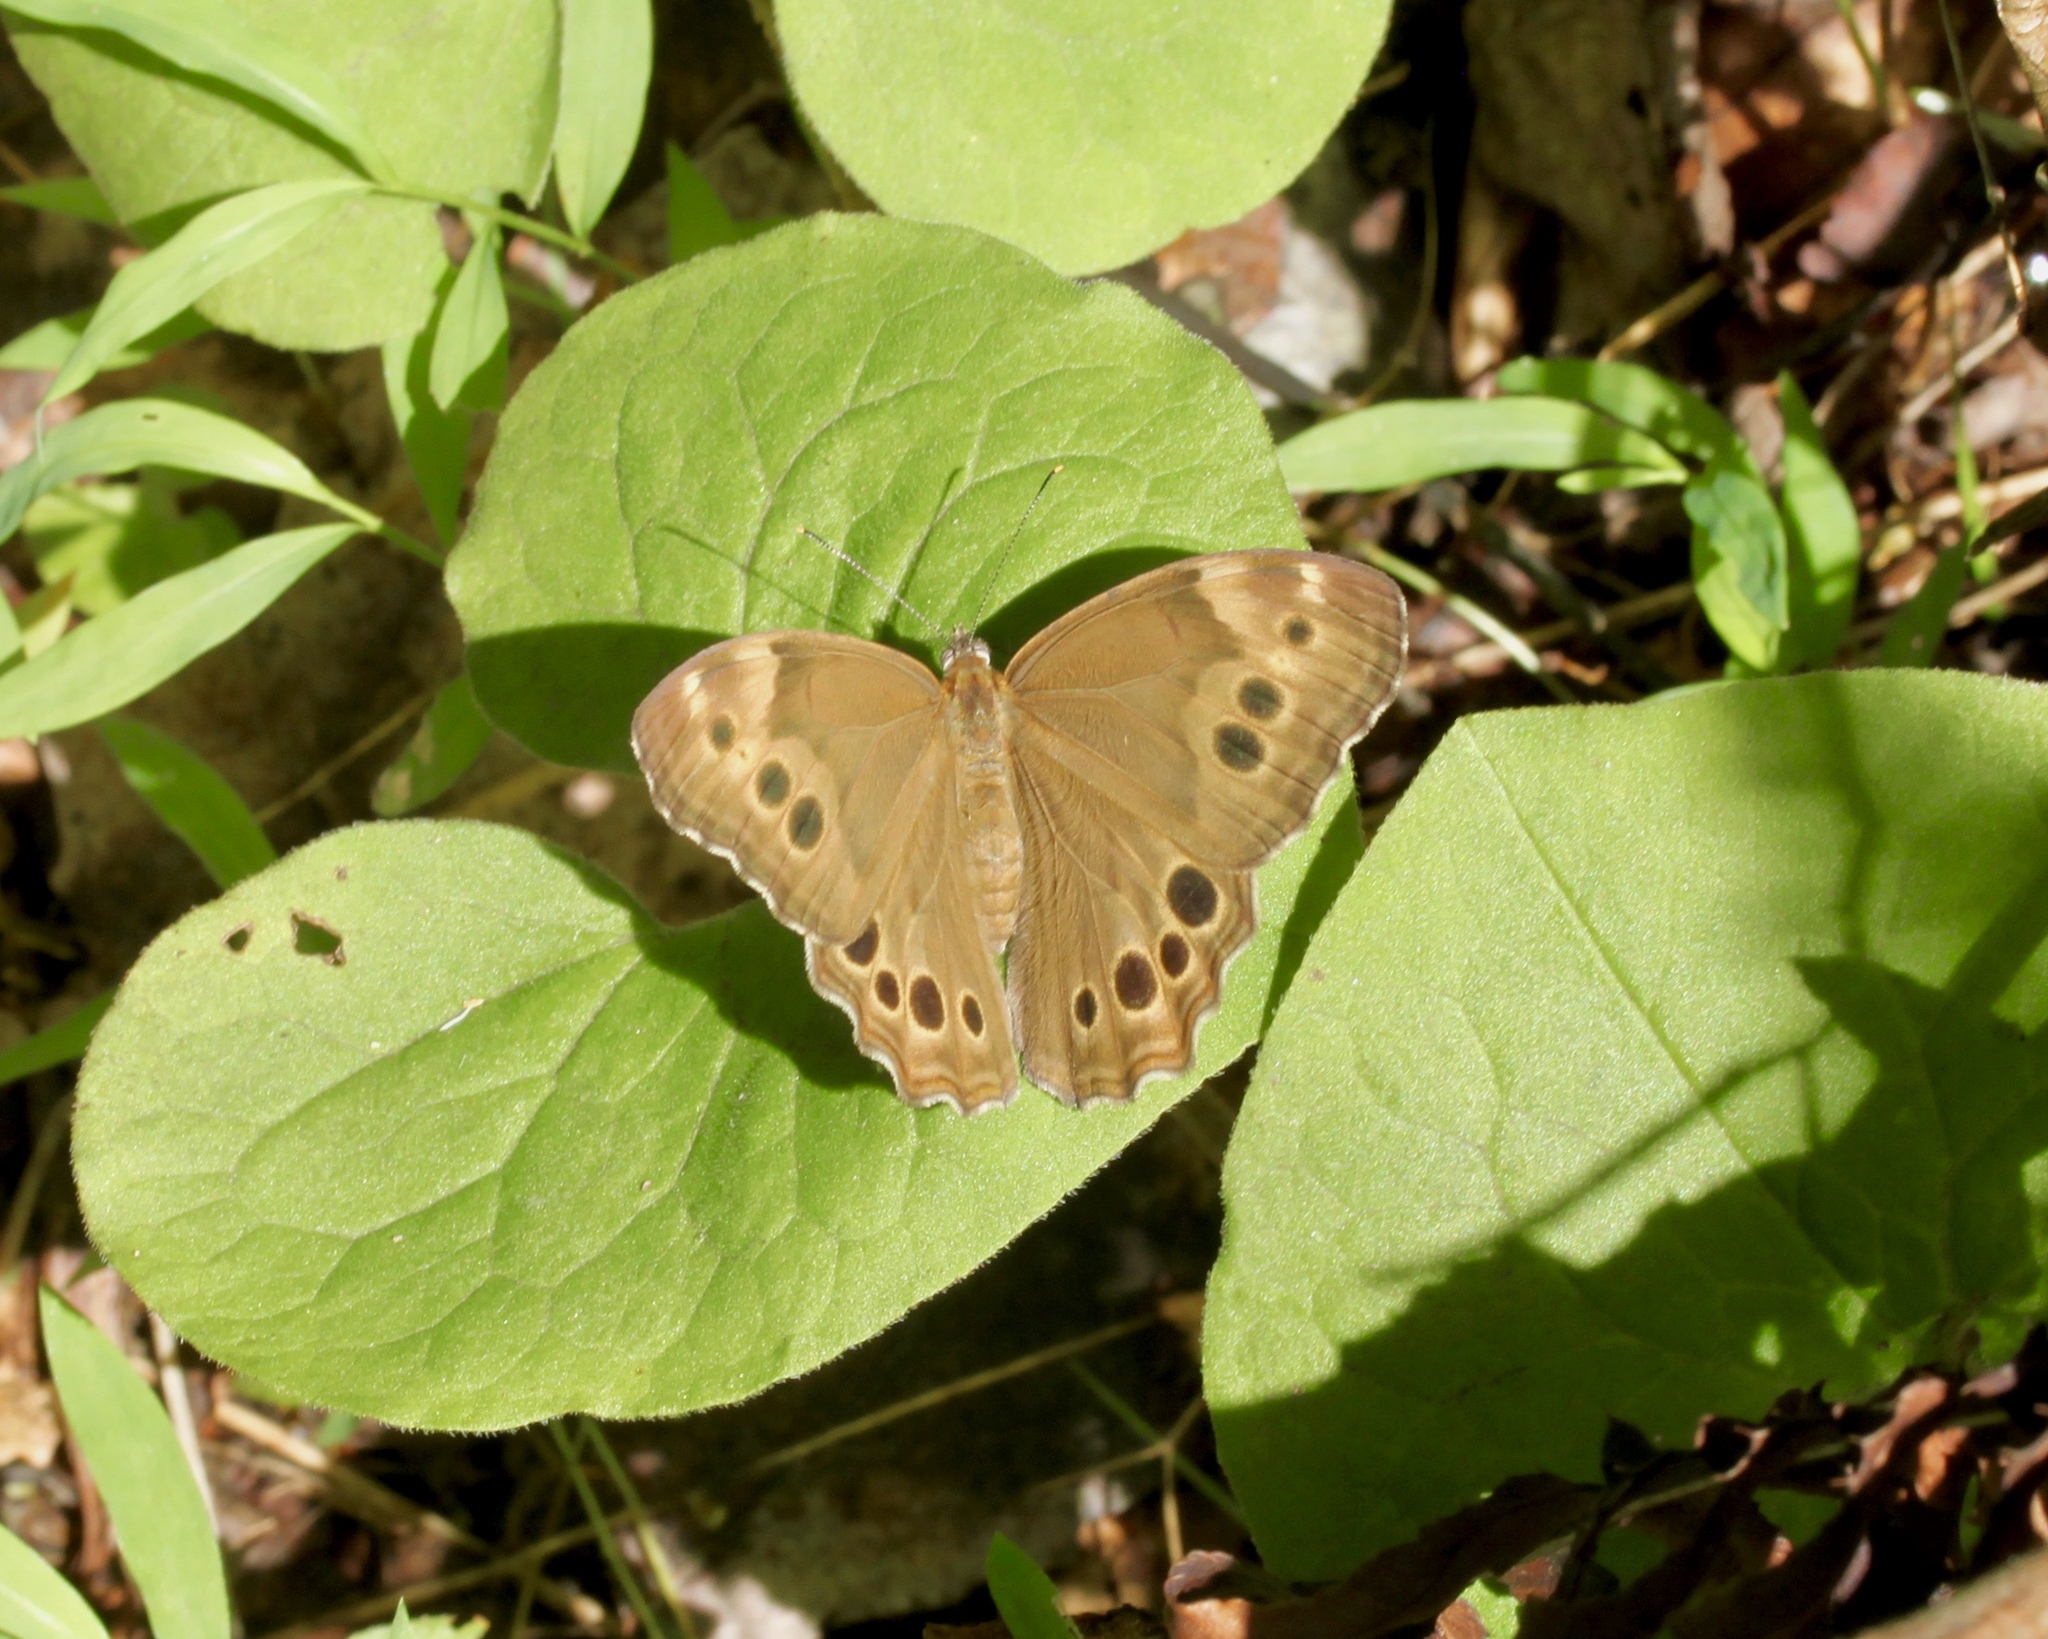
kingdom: Animalia
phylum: Arthropoda
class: Insecta
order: Lepidoptera
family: Nymphalidae
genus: Lethe
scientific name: Lethe anthedon
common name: Northern pearly-eye
